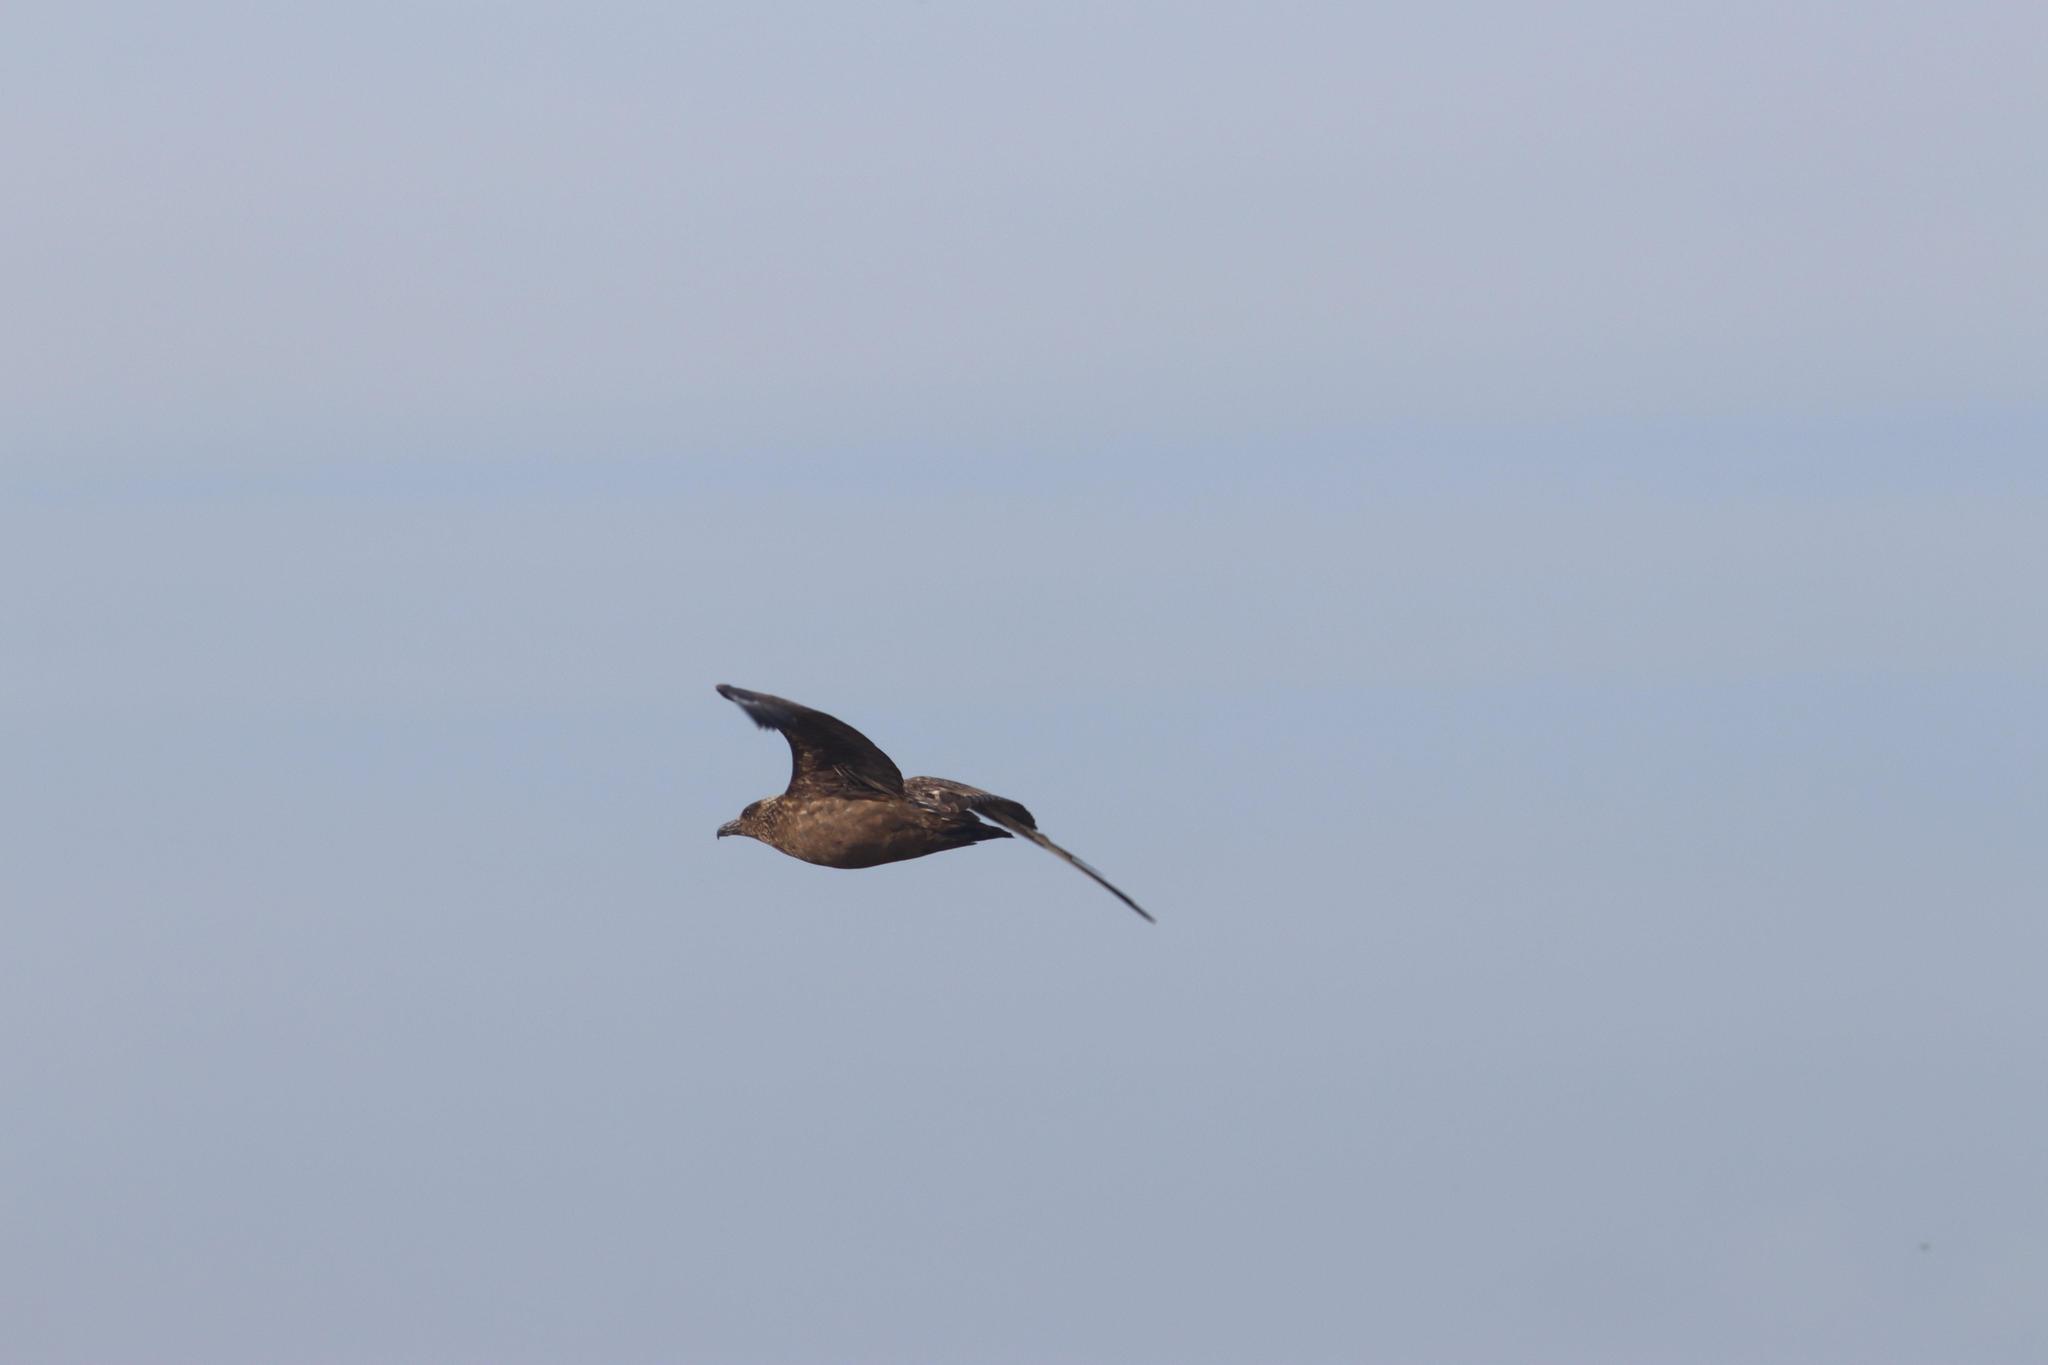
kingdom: Animalia
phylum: Chordata
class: Aves
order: Charadriiformes
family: Stercorariidae
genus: Stercorarius
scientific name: Stercorarius skua
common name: Great skua
